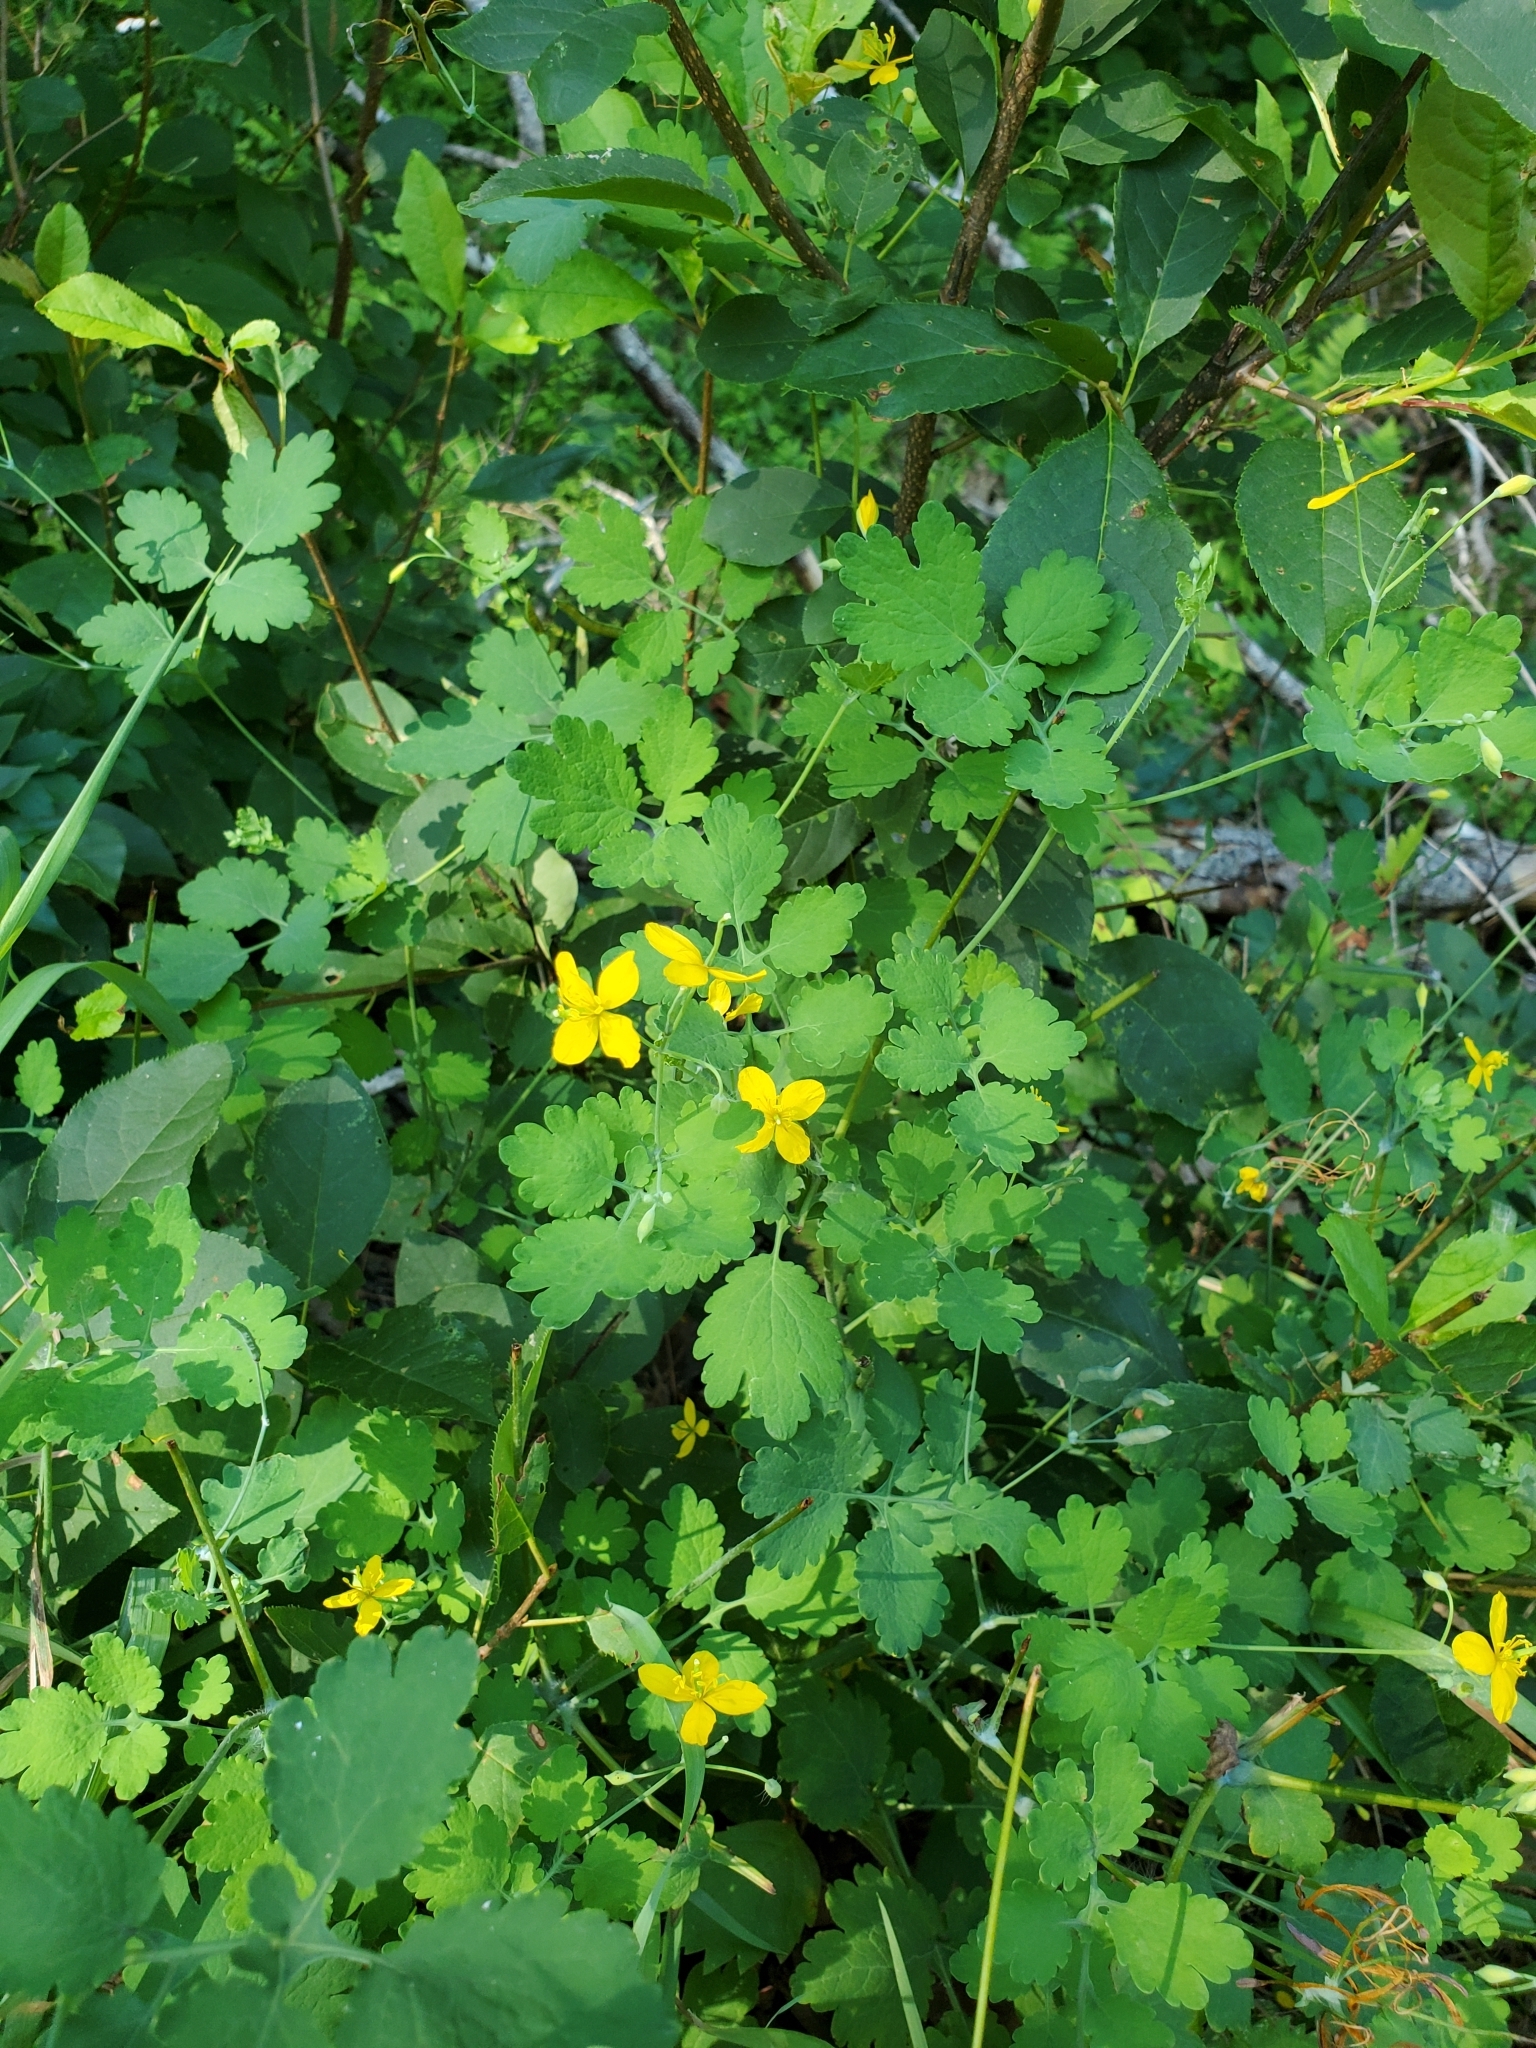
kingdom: Plantae
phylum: Tracheophyta
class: Magnoliopsida
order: Ranunculales
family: Papaveraceae
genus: Chelidonium
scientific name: Chelidonium majus
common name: Greater celandine
